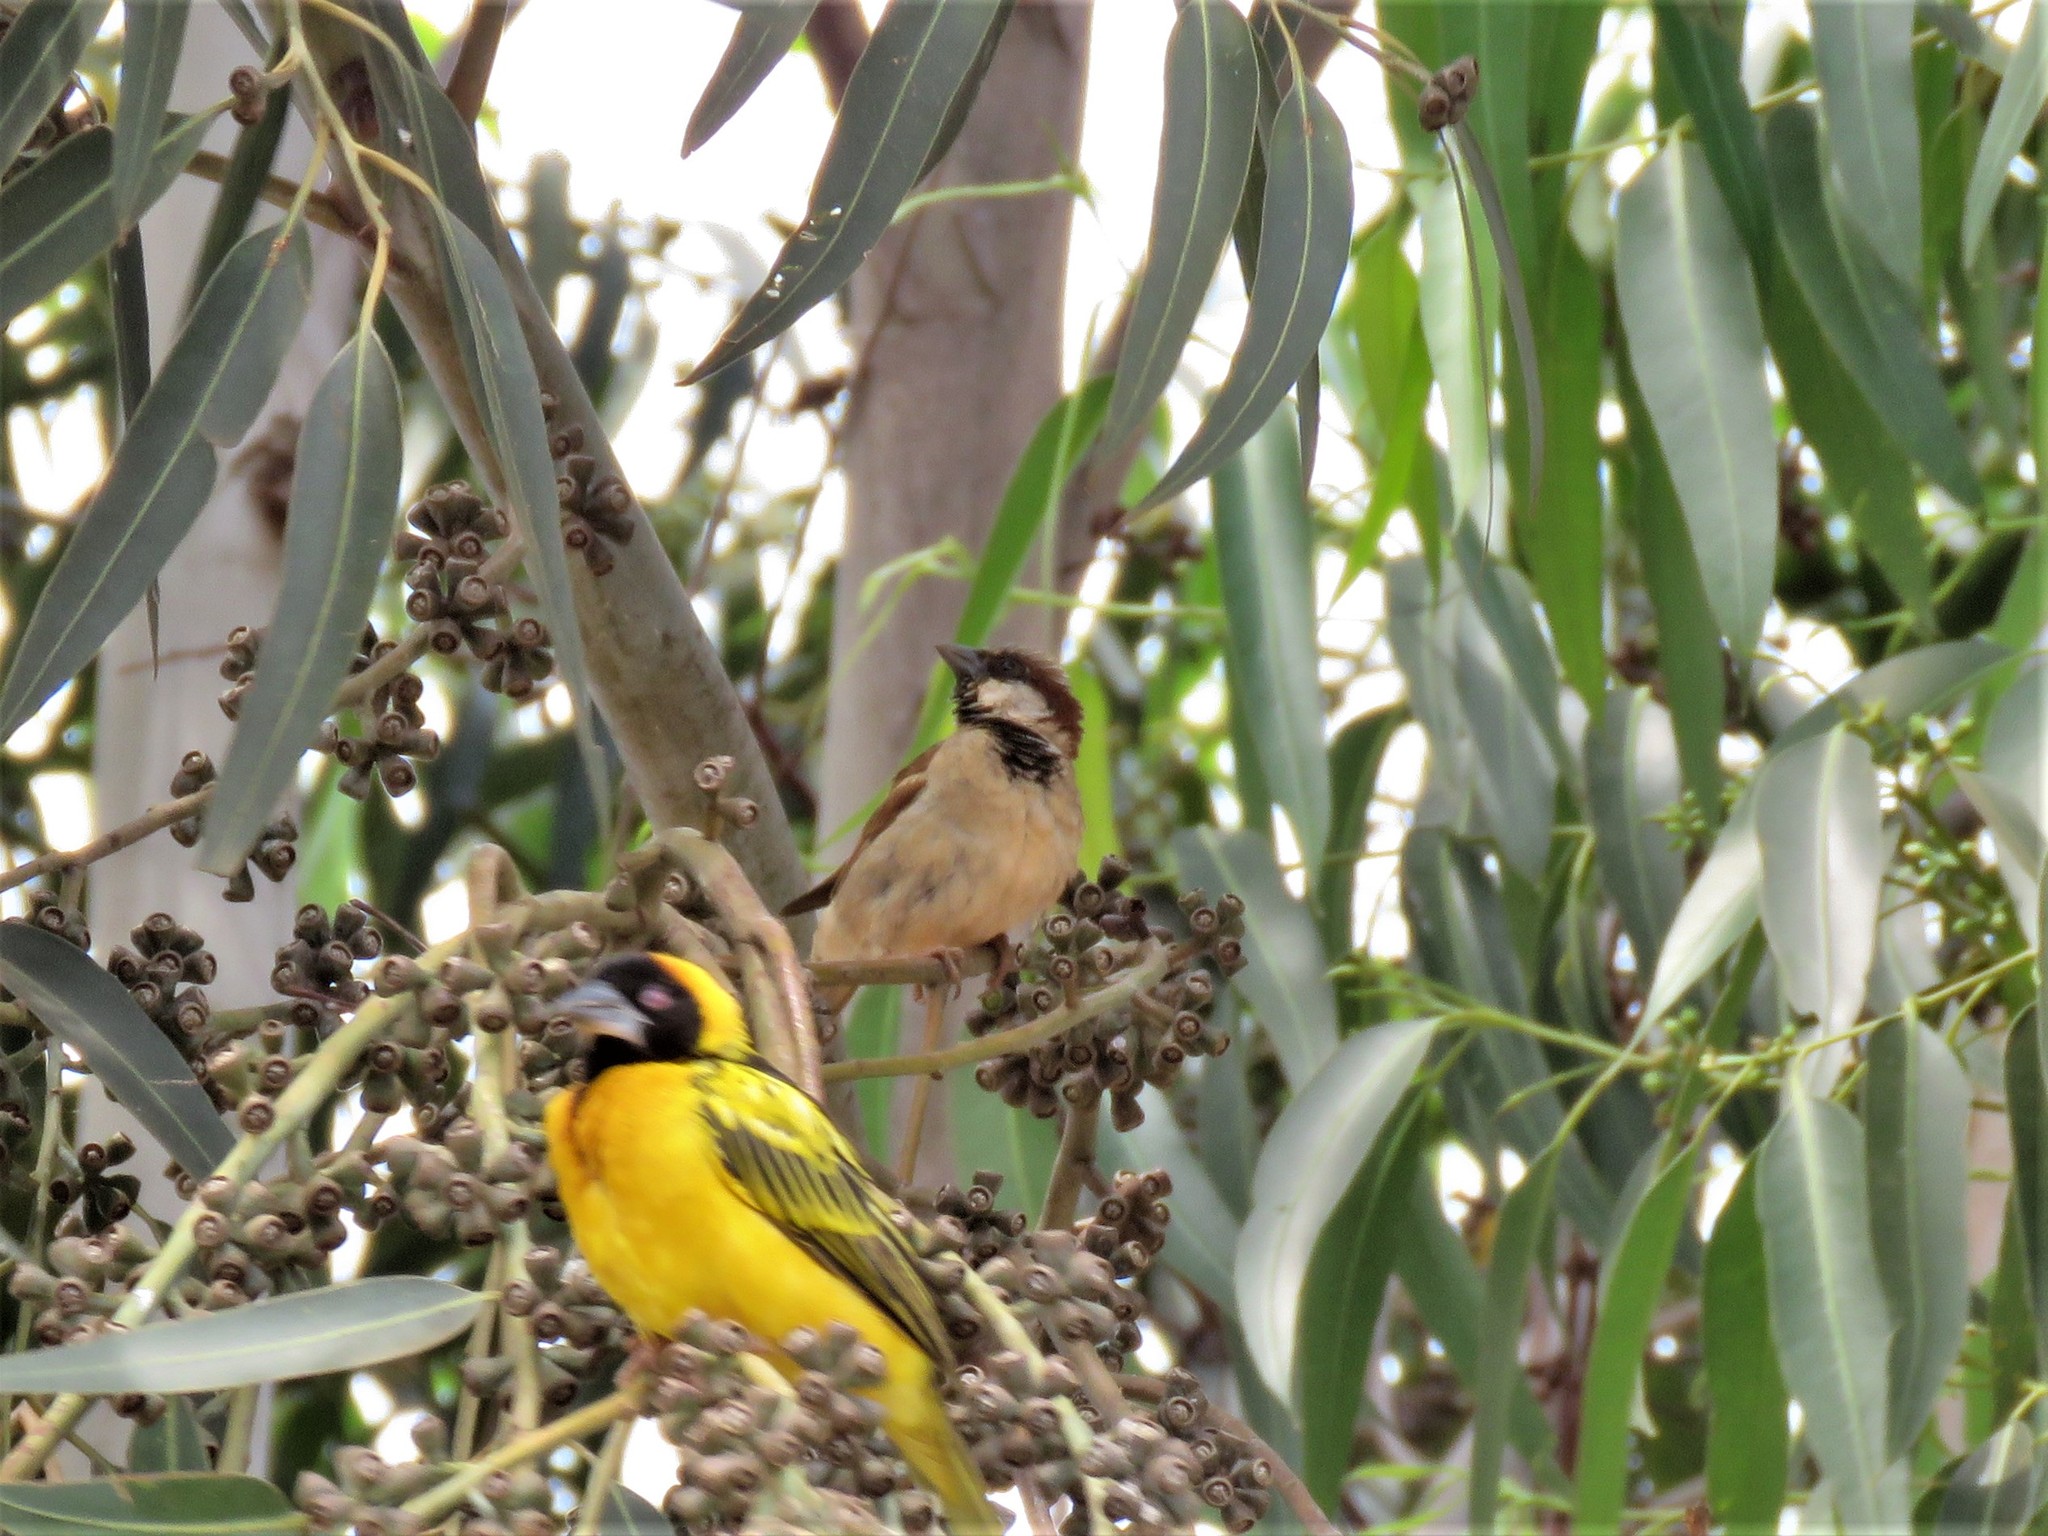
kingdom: Animalia
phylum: Chordata
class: Aves
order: Passeriformes
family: Passeridae
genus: Passer
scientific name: Passer domesticus
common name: House sparrow
